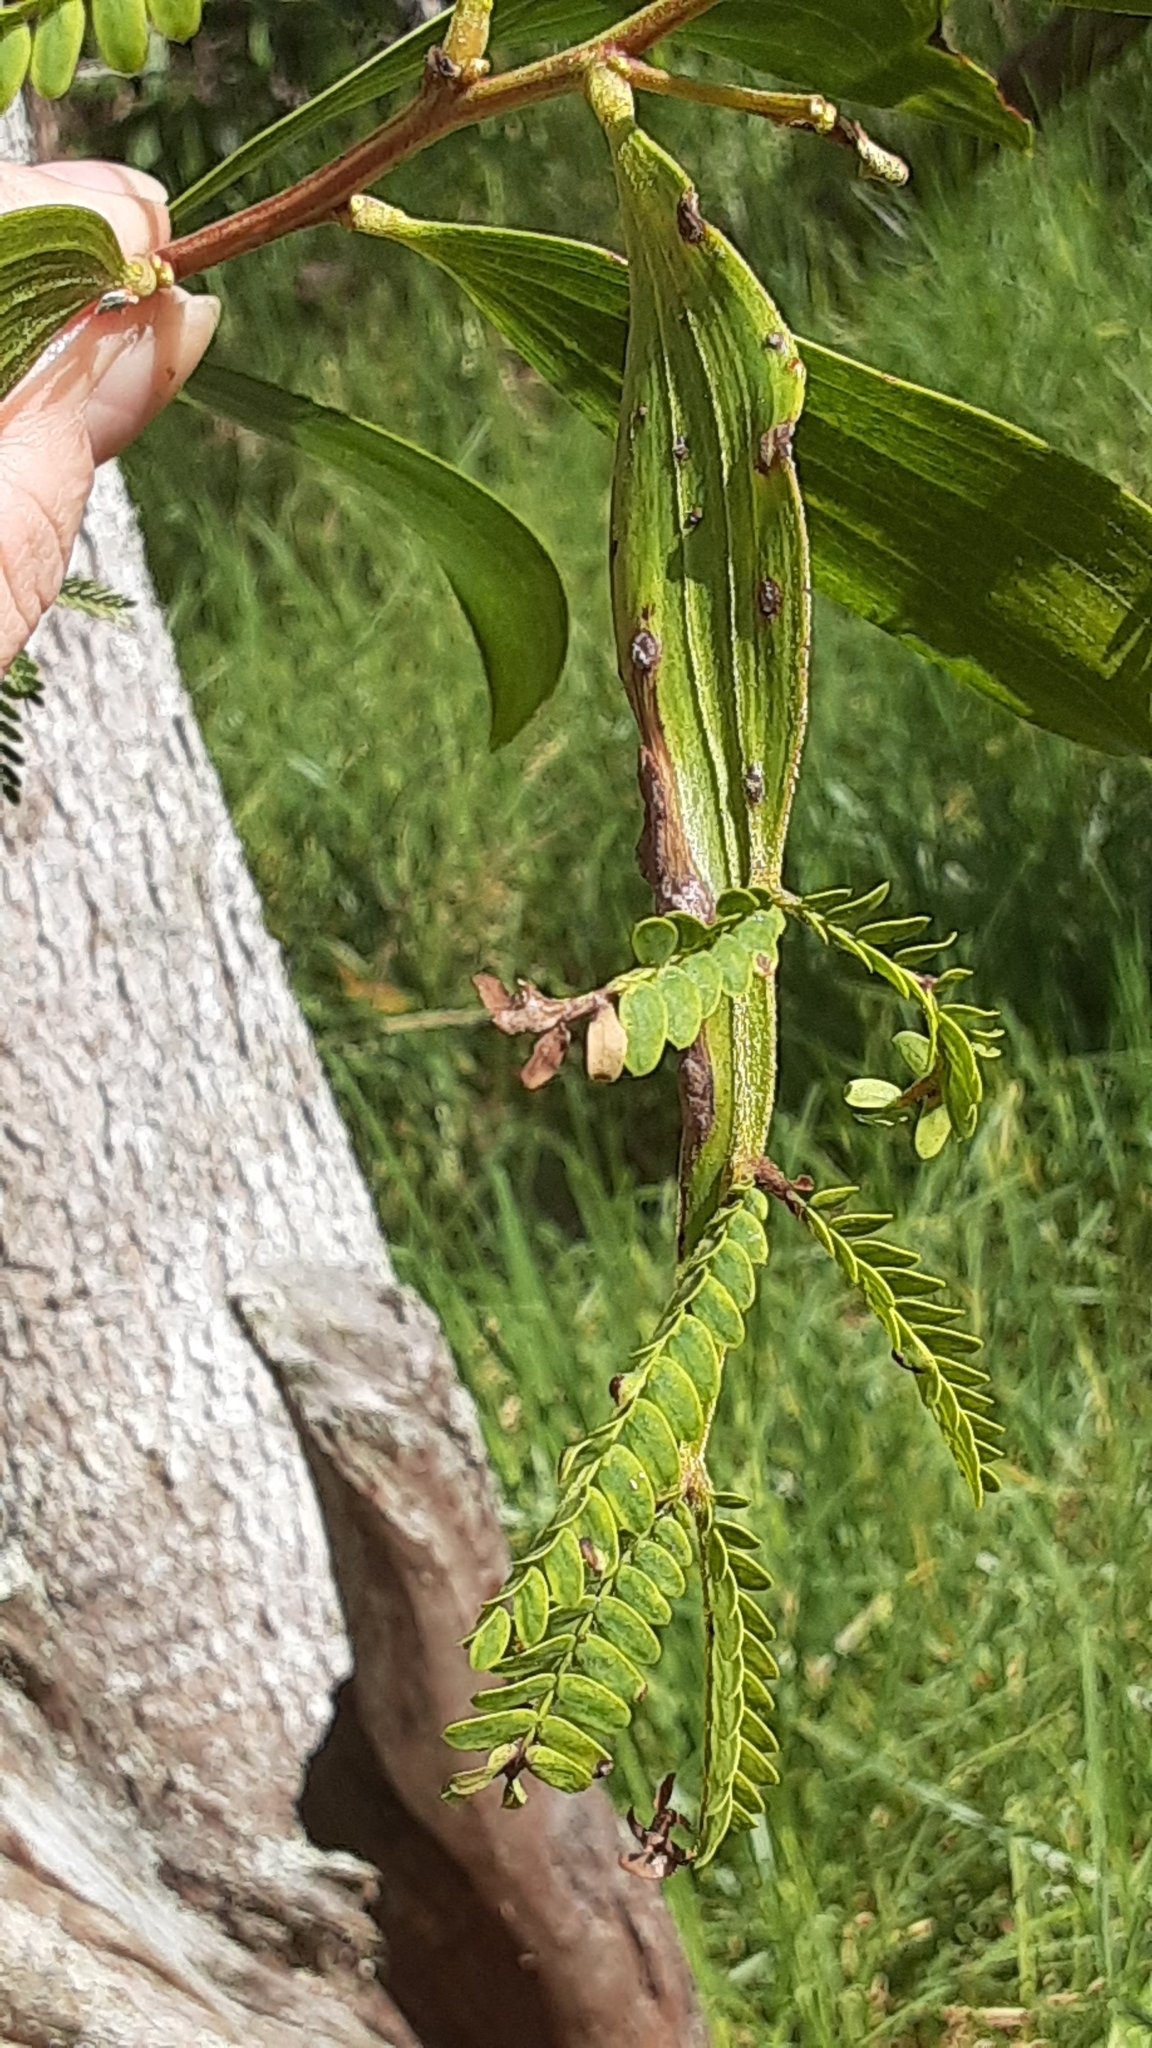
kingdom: Plantae
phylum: Tracheophyta
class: Magnoliopsida
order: Fabales
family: Fabaceae
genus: Acacia
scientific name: Acacia koa
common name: Gray koa
